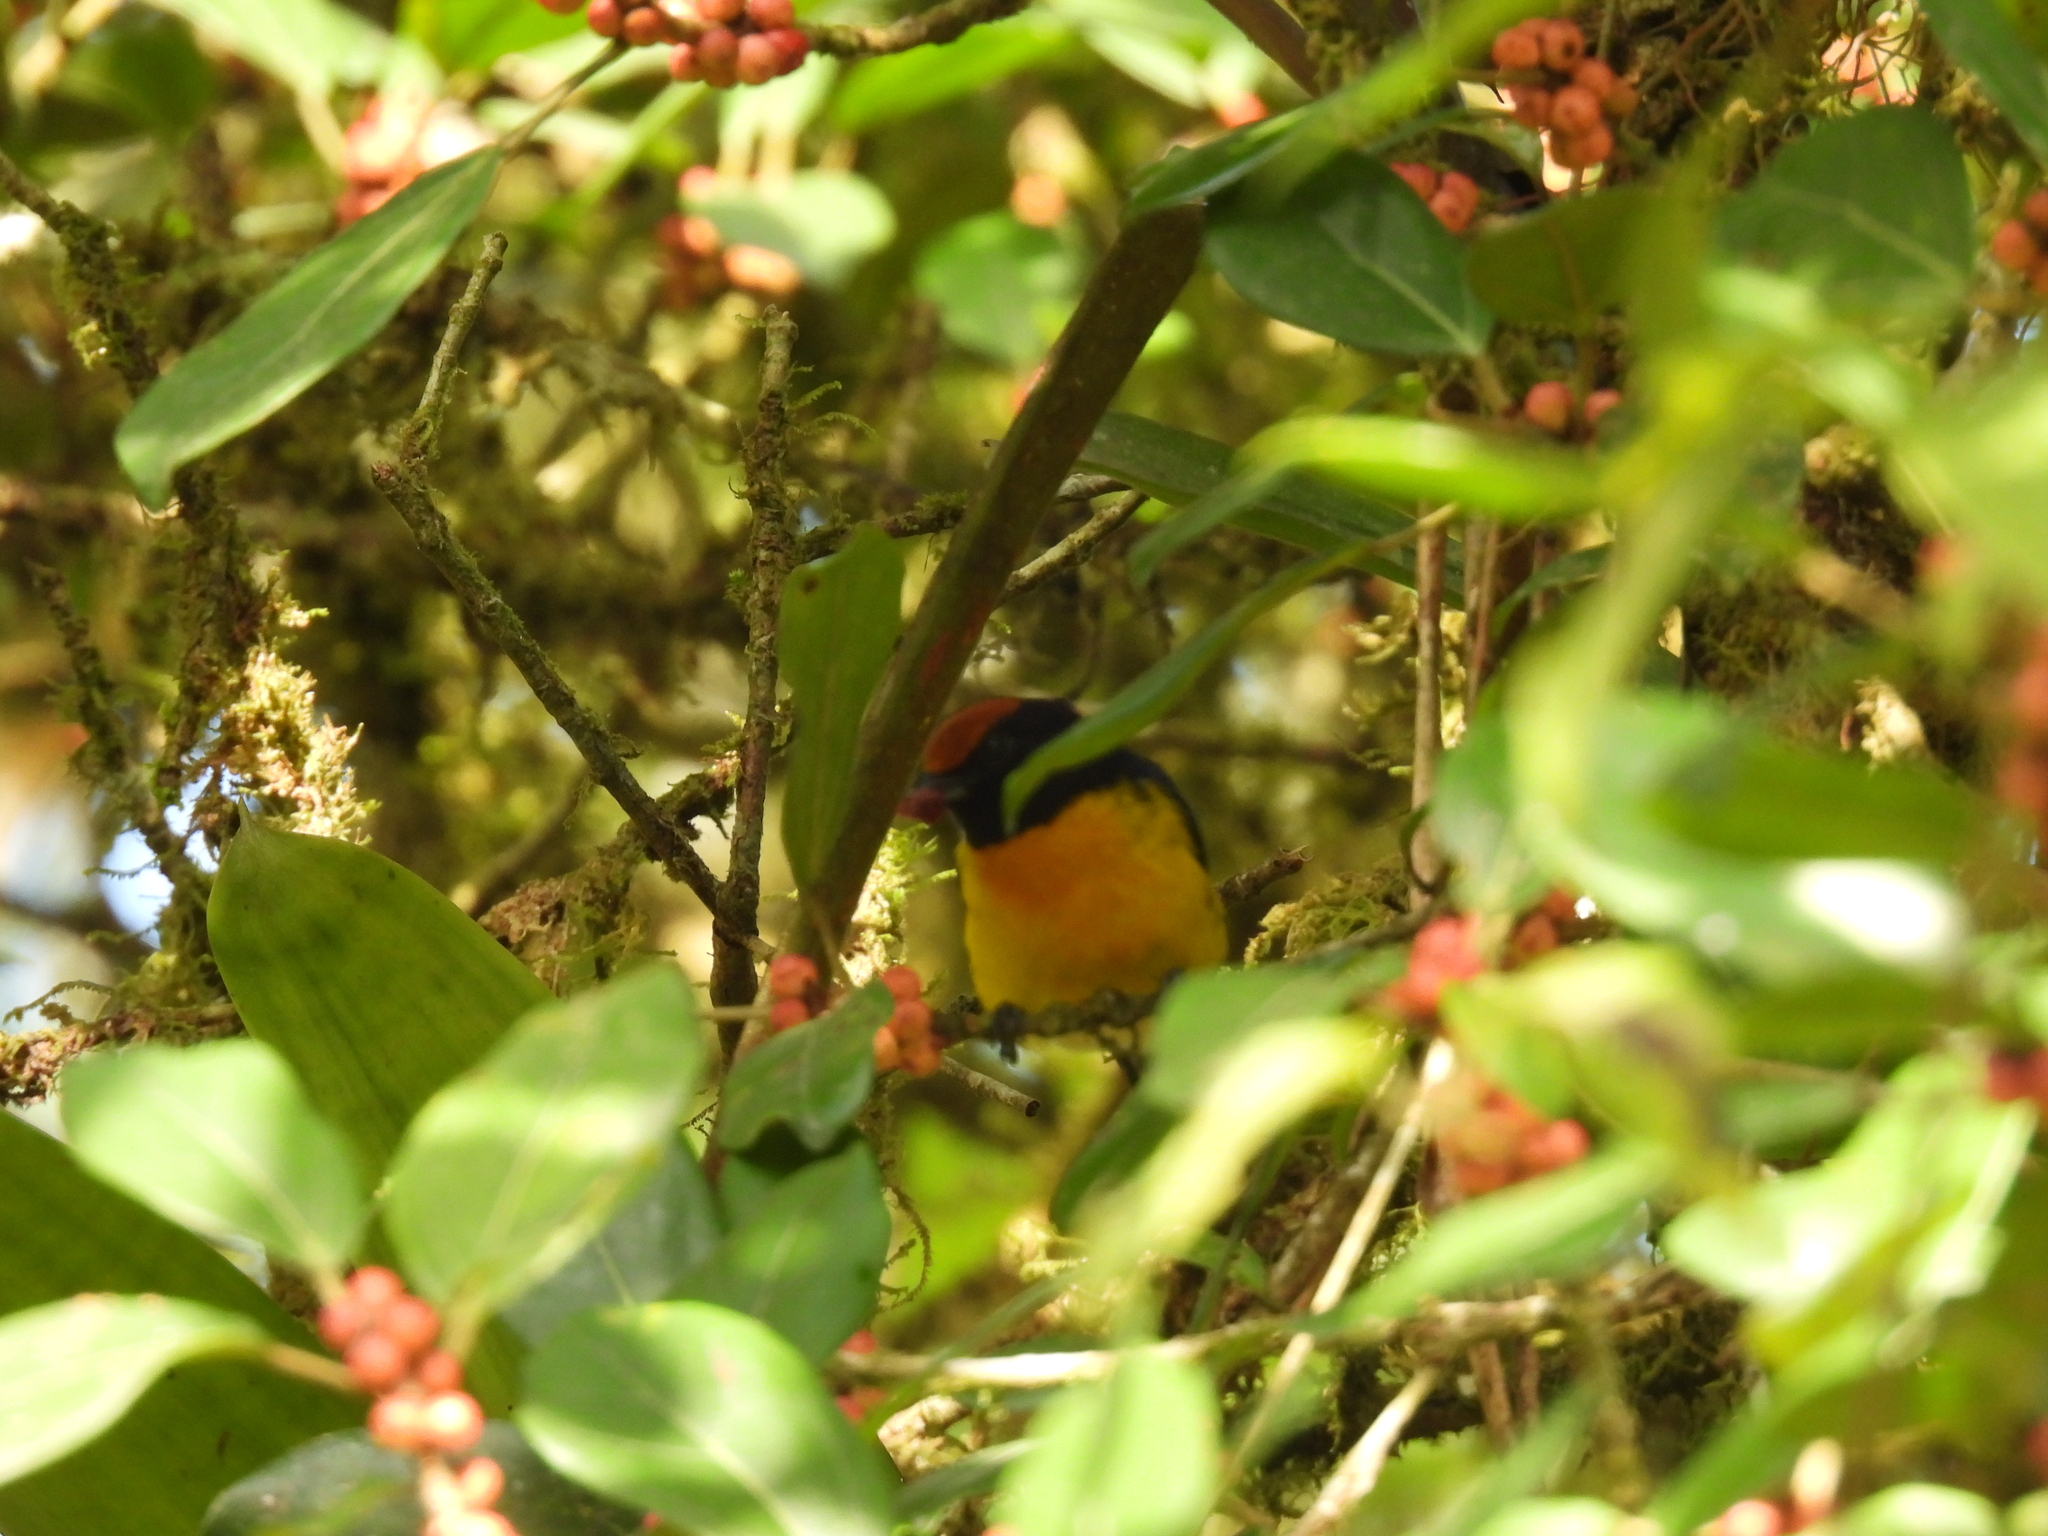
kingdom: Animalia
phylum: Chordata
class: Aves
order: Passeriformes
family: Fringillidae
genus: Euphonia
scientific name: Euphonia anneae
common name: Tawny-capped euphonia
